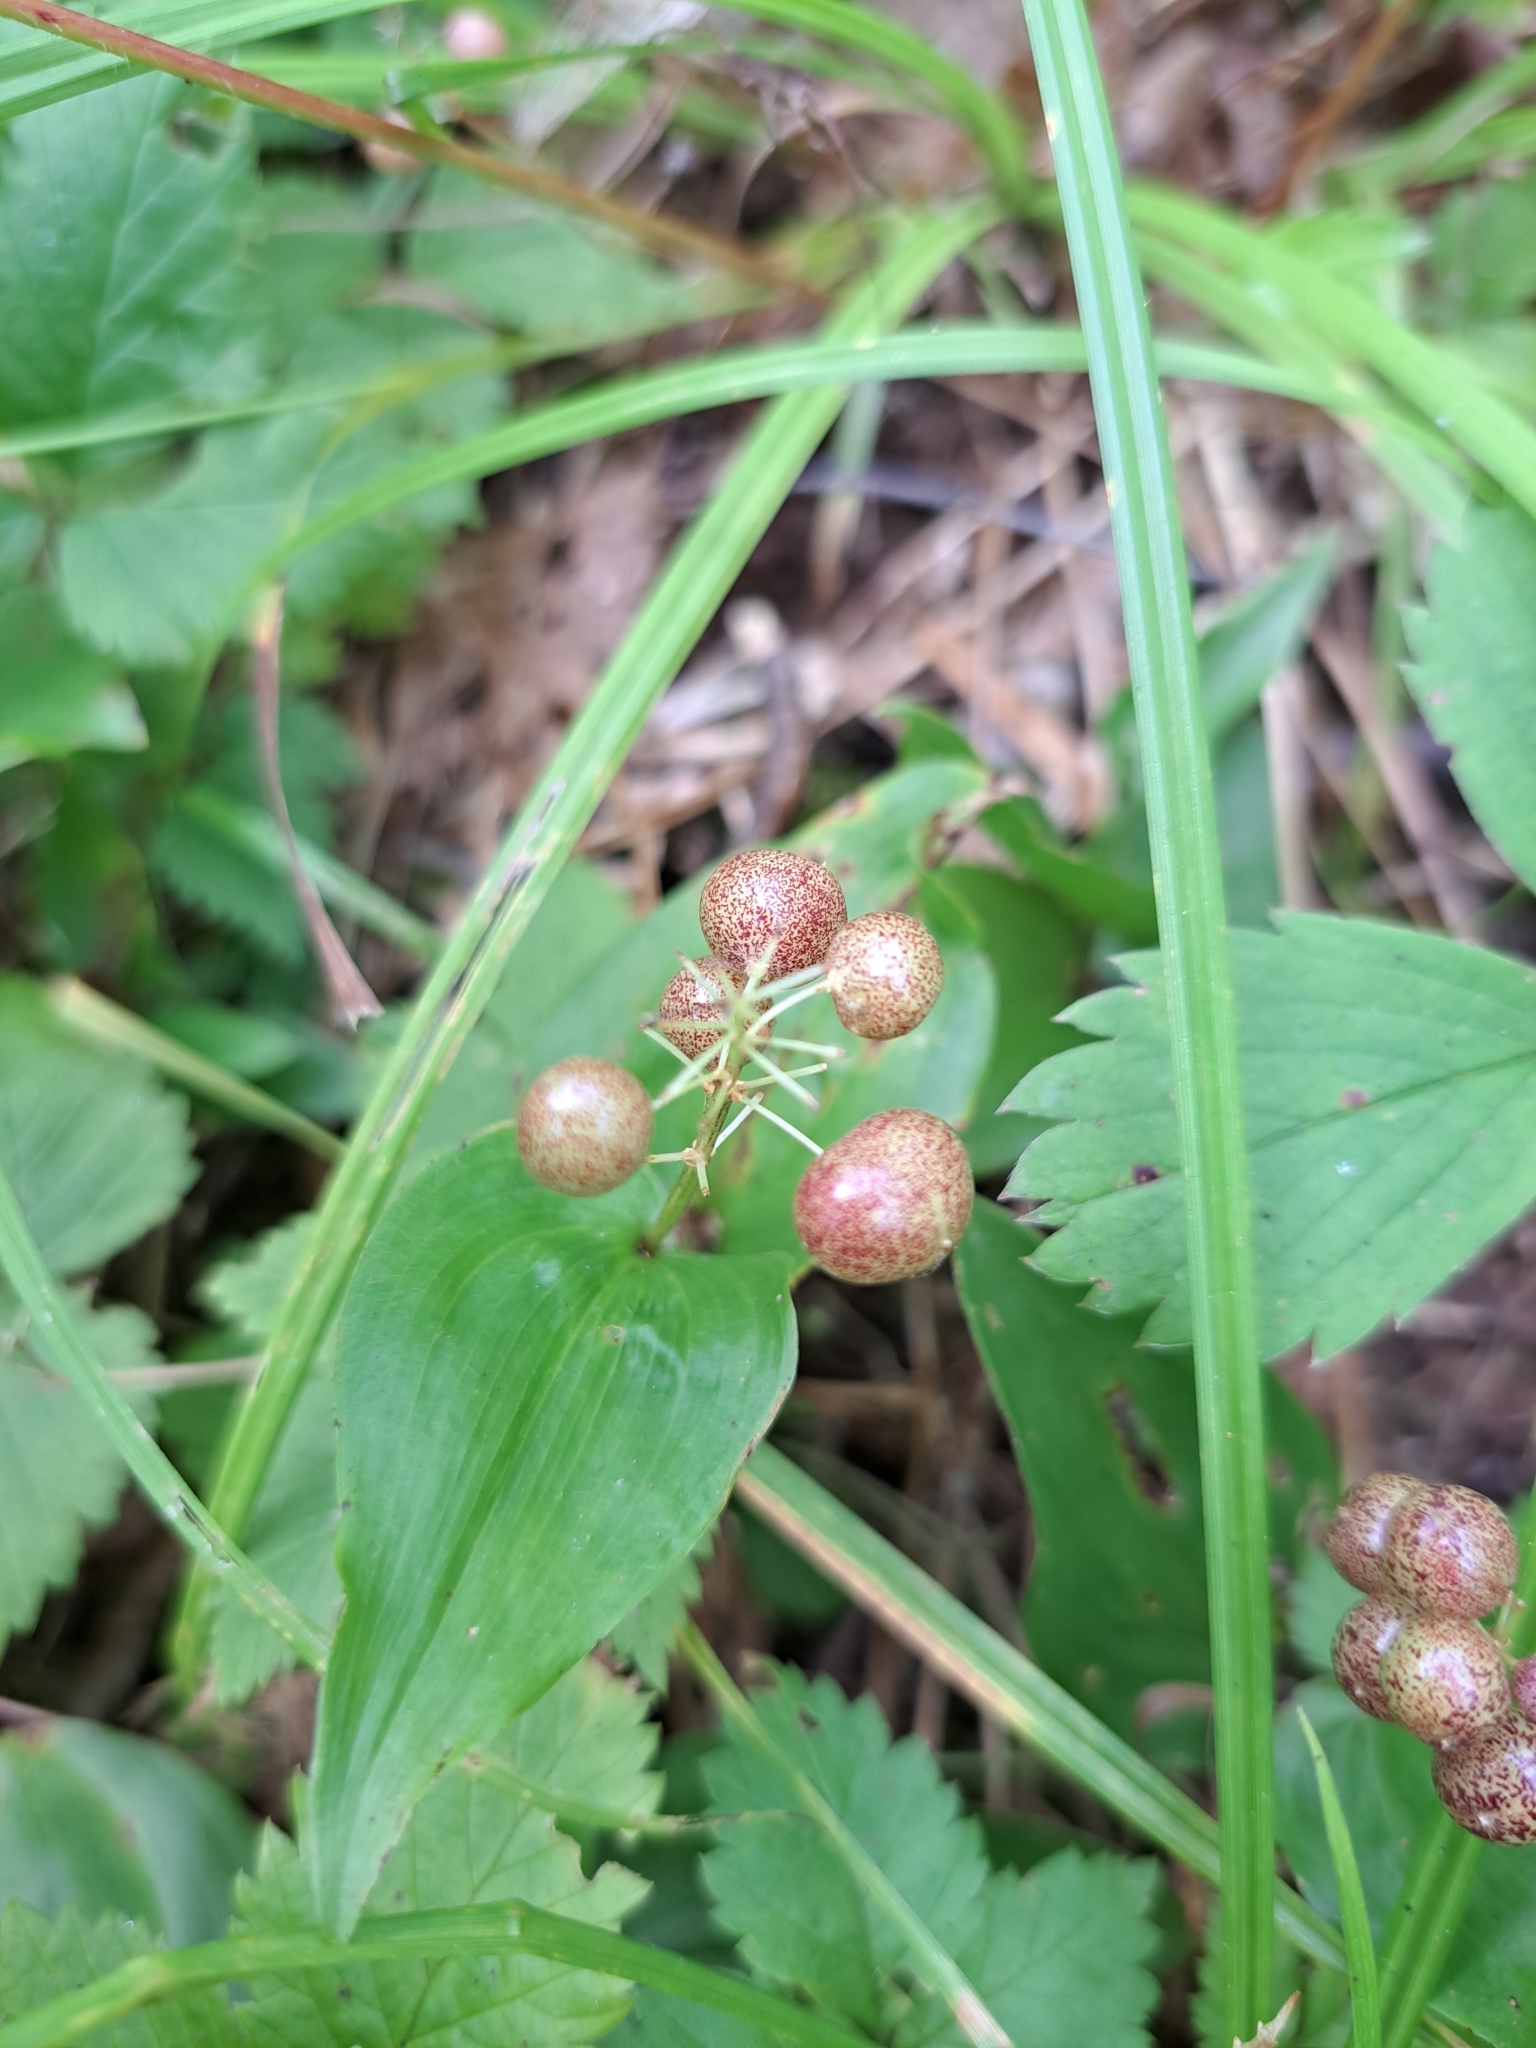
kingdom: Plantae
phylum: Tracheophyta
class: Liliopsida
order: Asparagales
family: Asparagaceae
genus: Maianthemum
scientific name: Maianthemum canadense
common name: False lily-of-the-valley
